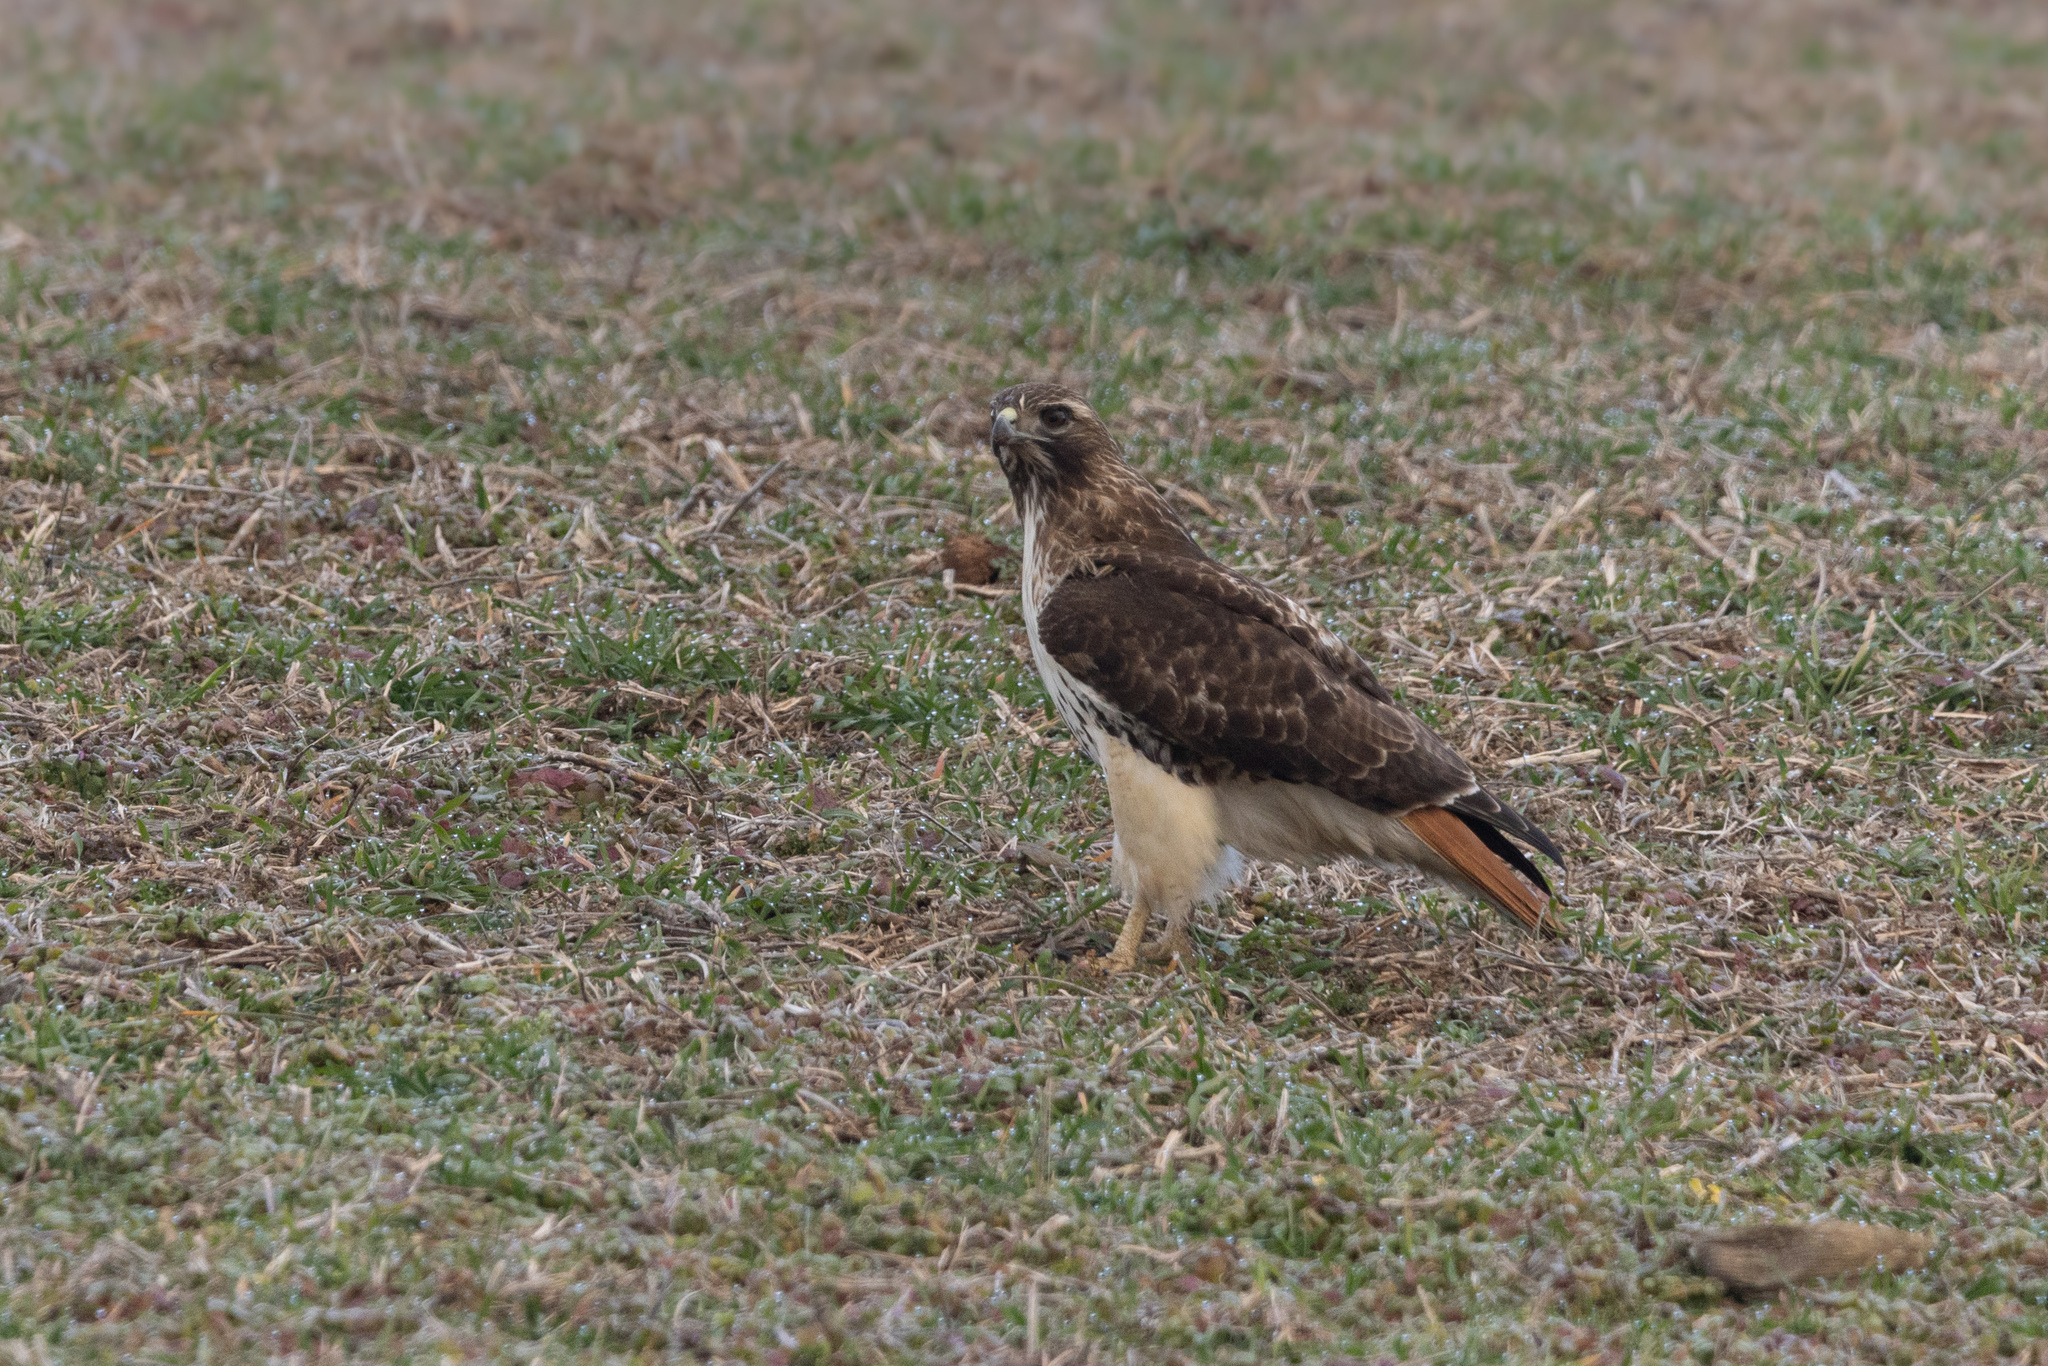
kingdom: Animalia
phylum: Chordata
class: Aves
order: Accipitriformes
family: Accipitridae
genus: Buteo
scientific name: Buteo jamaicensis
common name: Red-tailed hawk
